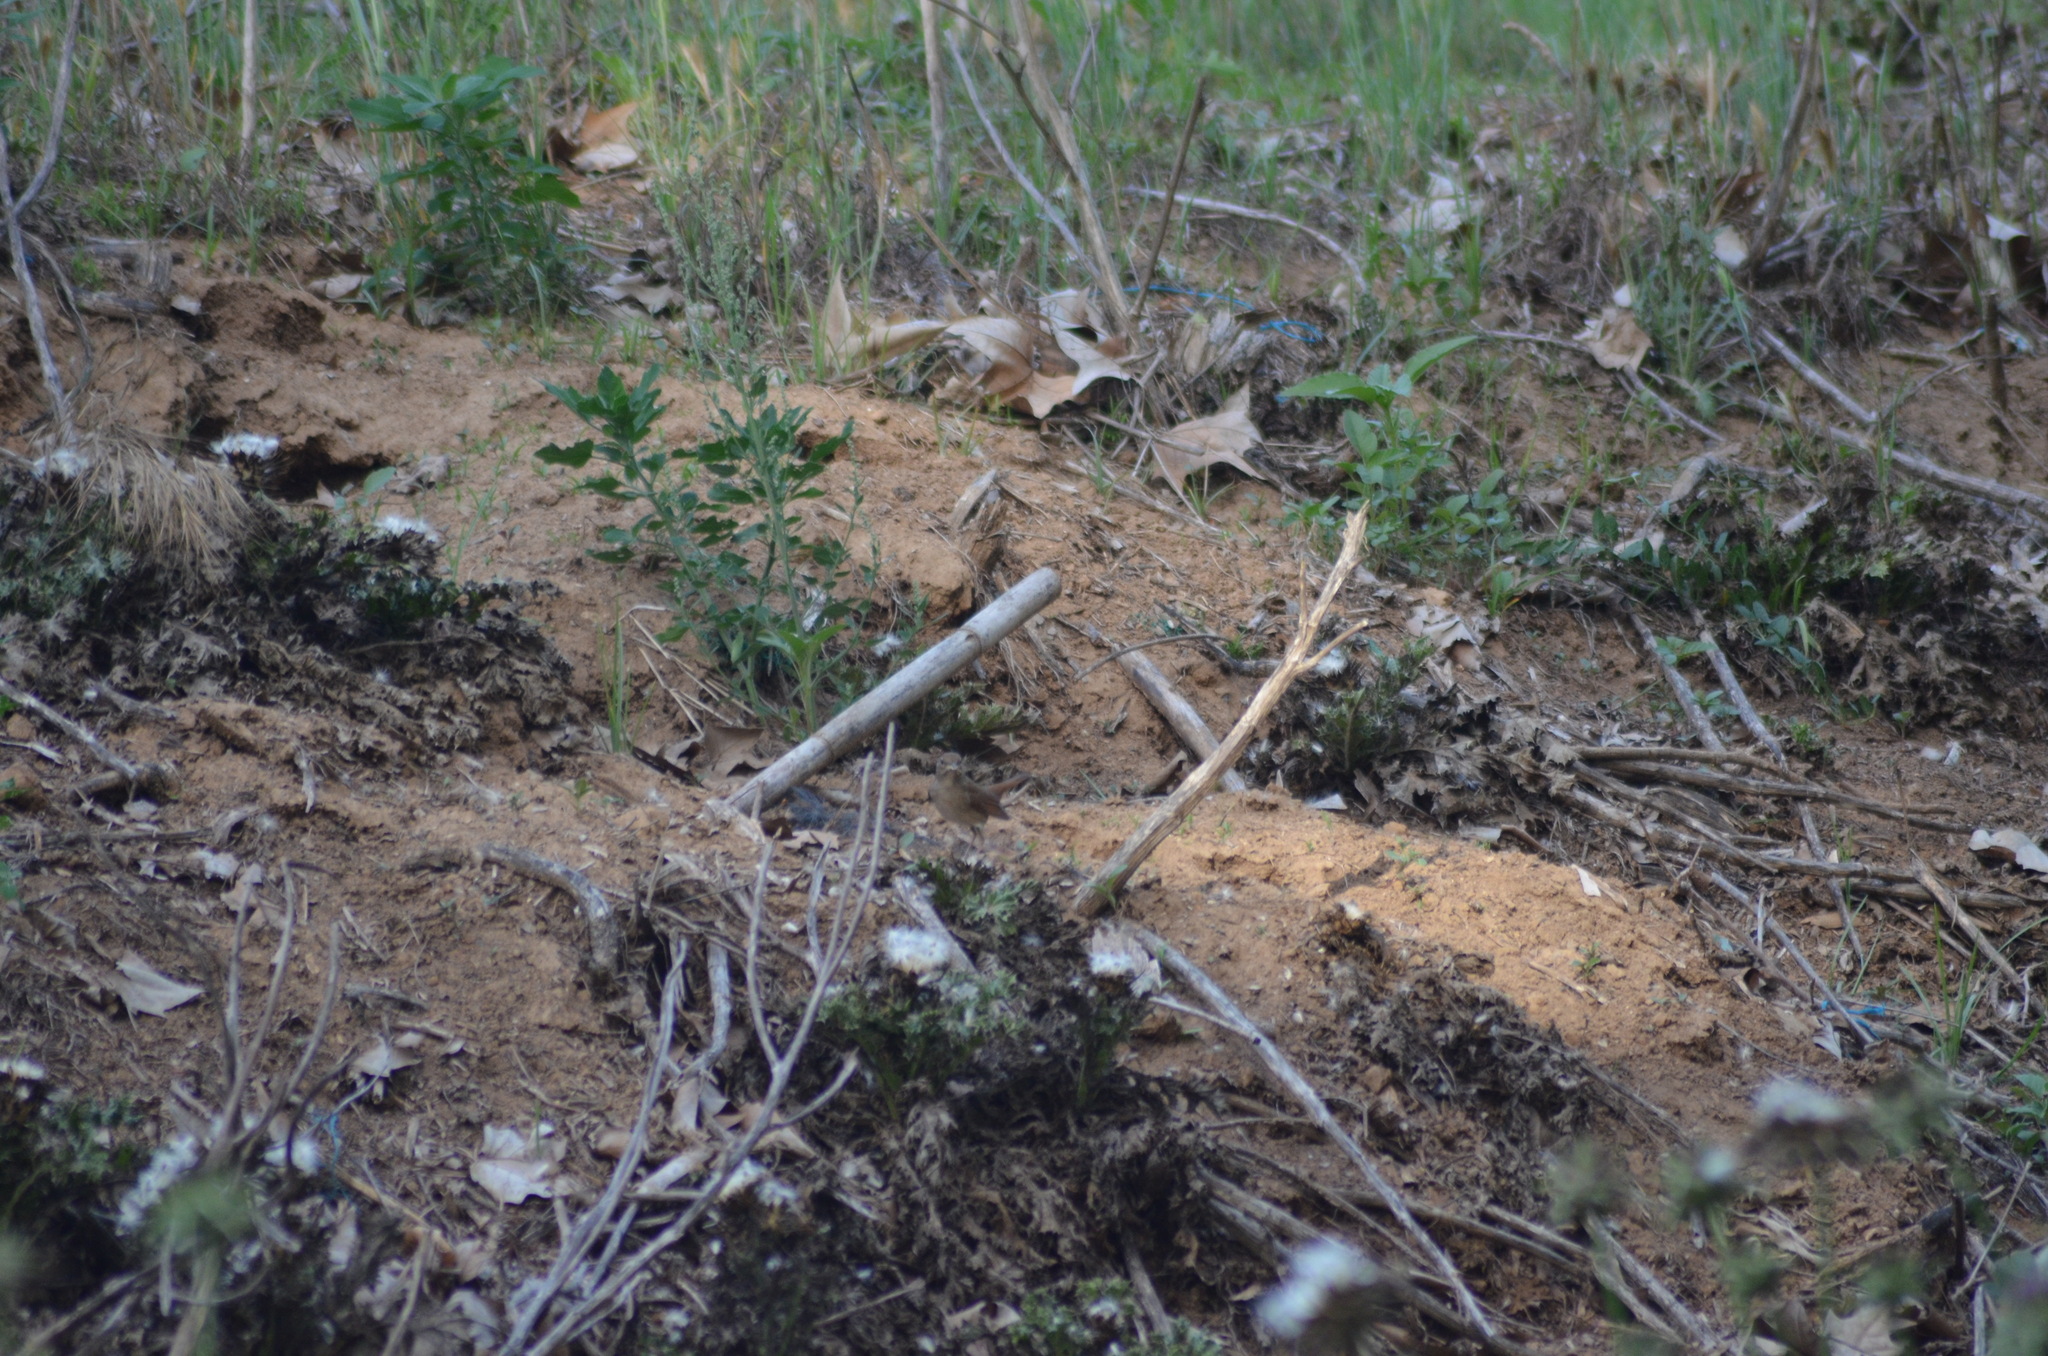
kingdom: Animalia
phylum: Chordata
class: Aves
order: Passeriformes
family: Muscicapidae
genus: Luscinia
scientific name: Luscinia megarhynchos
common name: Common nightingale
